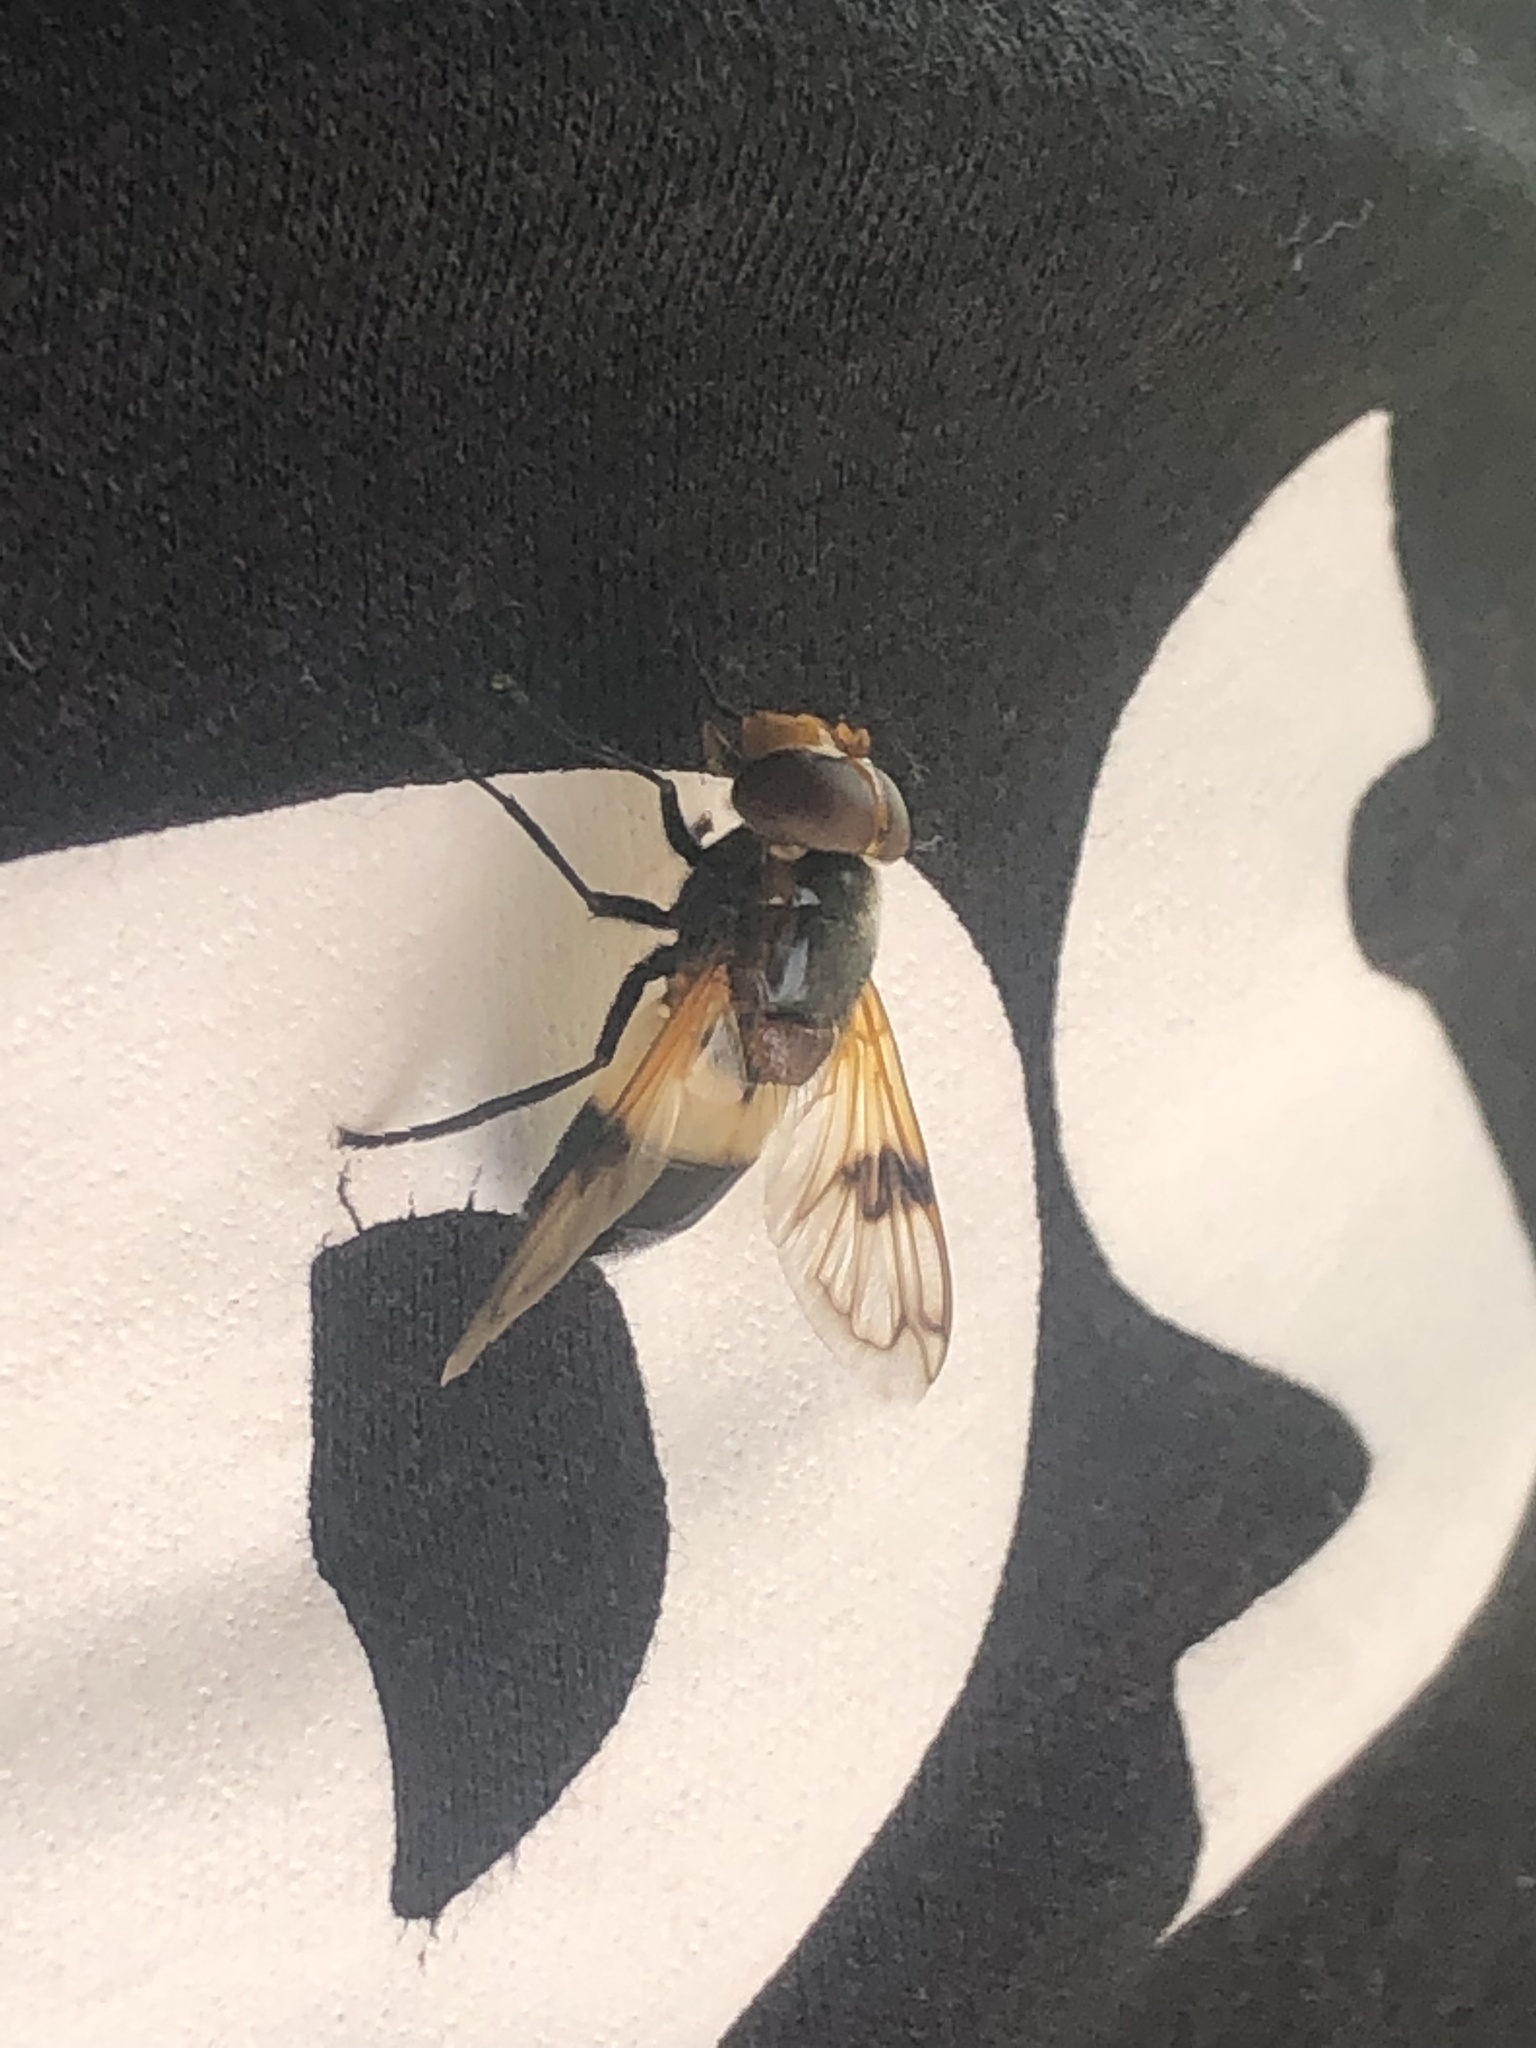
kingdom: Animalia
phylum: Arthropoda
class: Insecta
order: Diptera
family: Syrphidae
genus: Volucella
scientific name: Volucella pellucens
